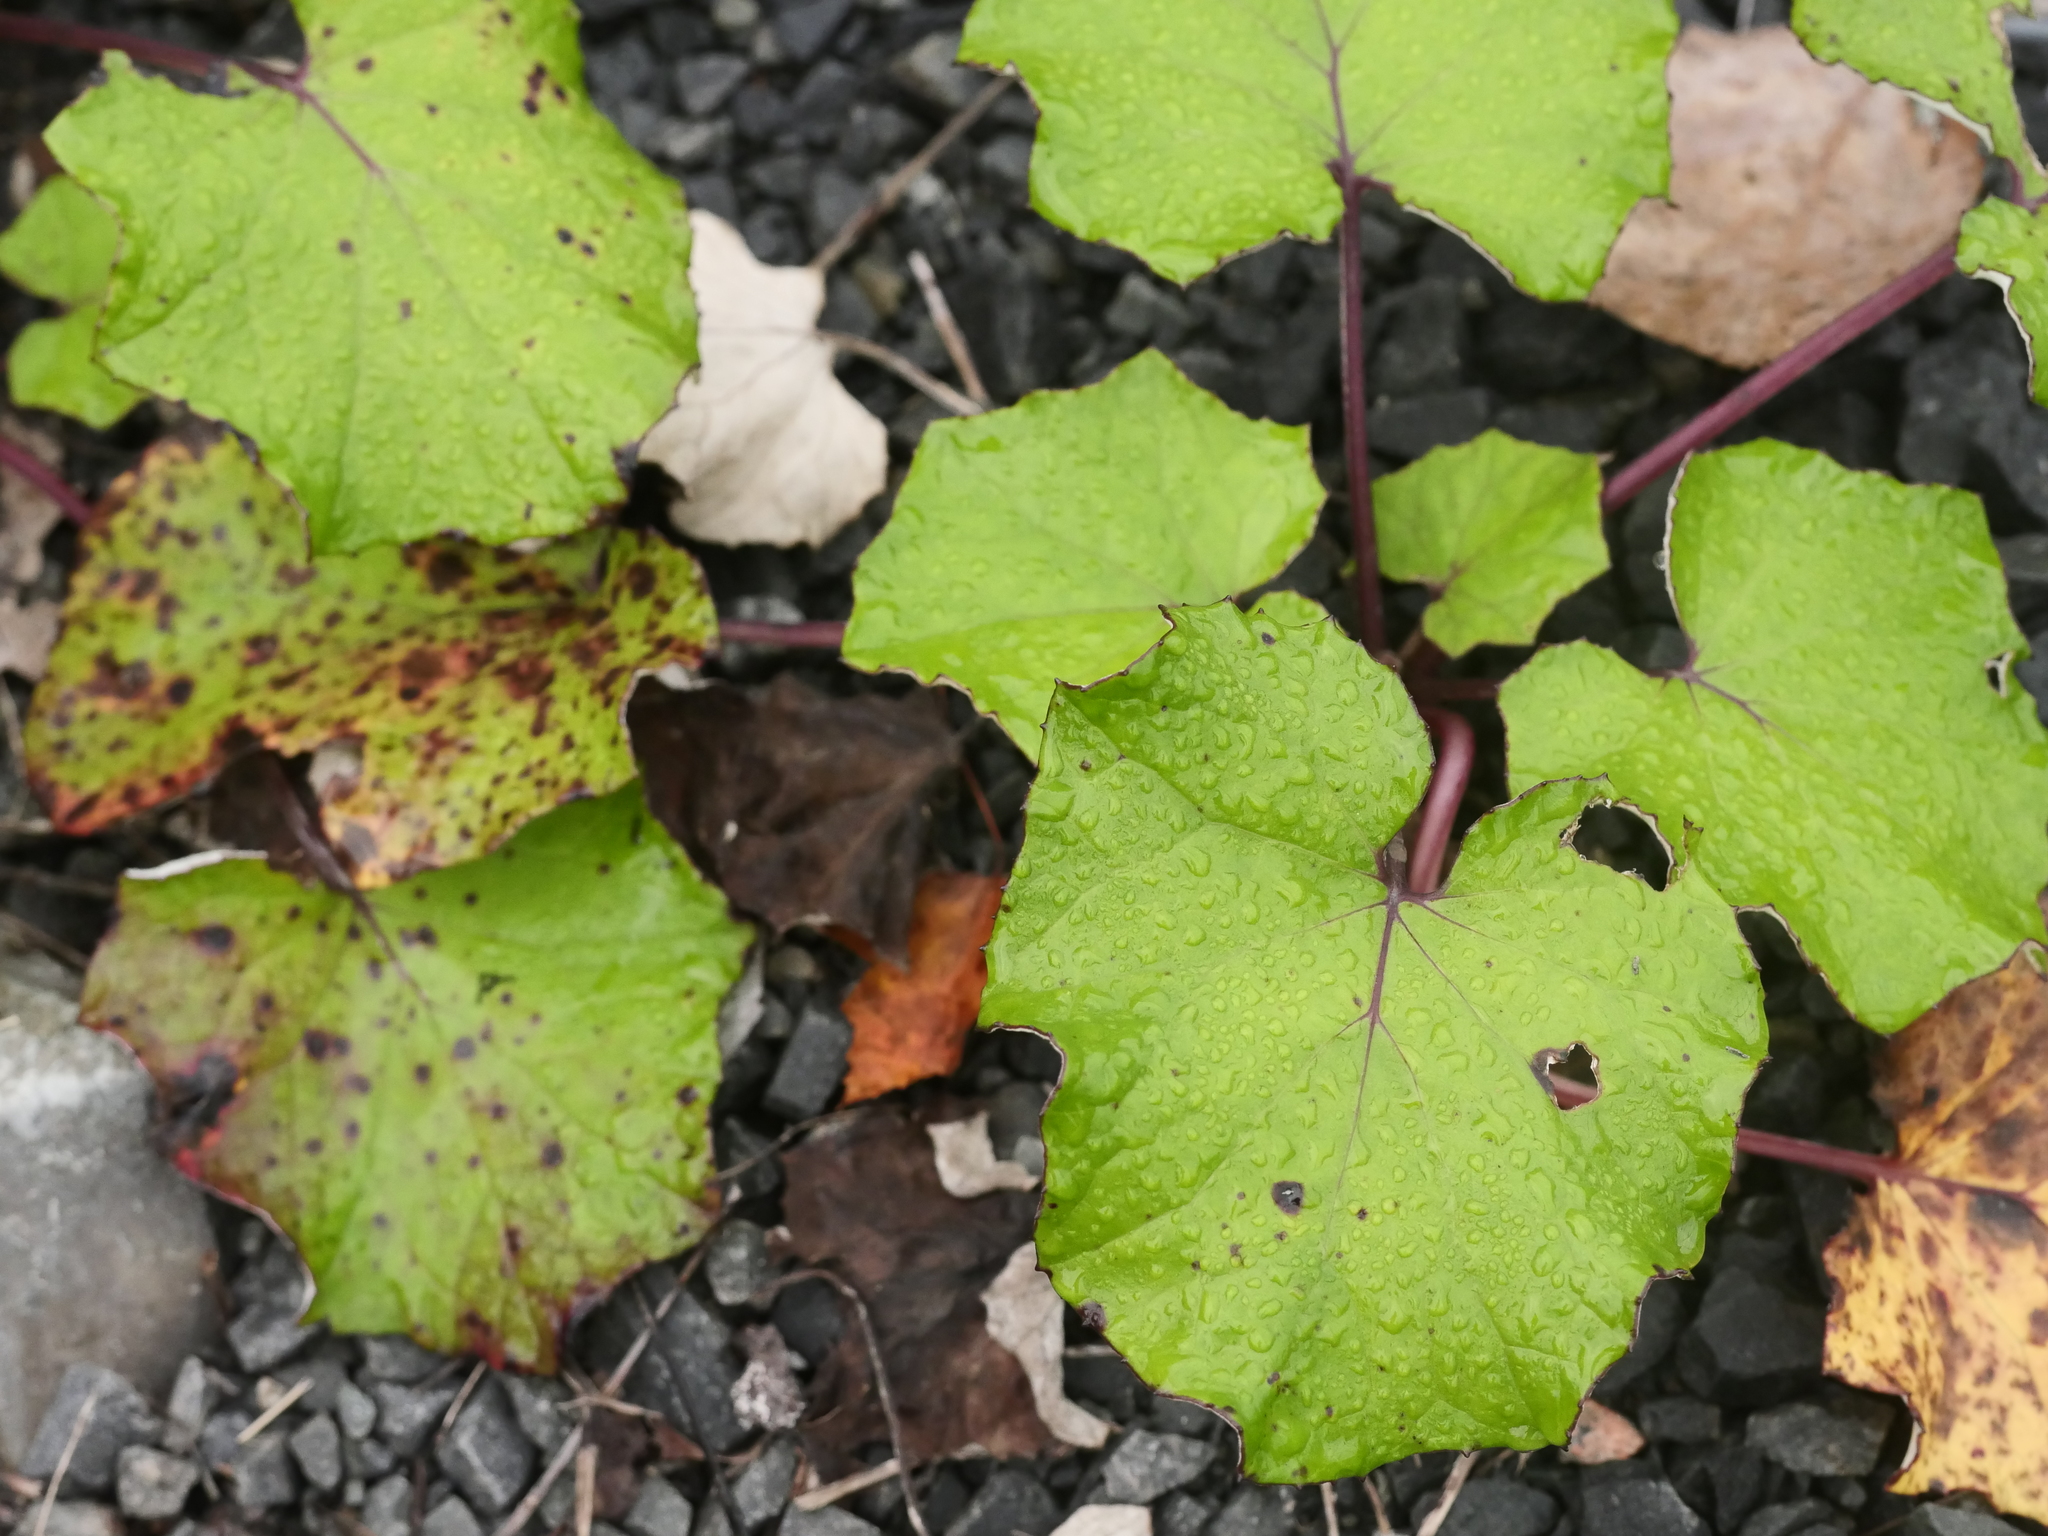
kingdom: Plantae
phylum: Tracheophyta
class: Magnoliopsida
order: Asterales
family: Asteraceae
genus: Tussilago
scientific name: Tussilago farfara
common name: Coltsfoot
